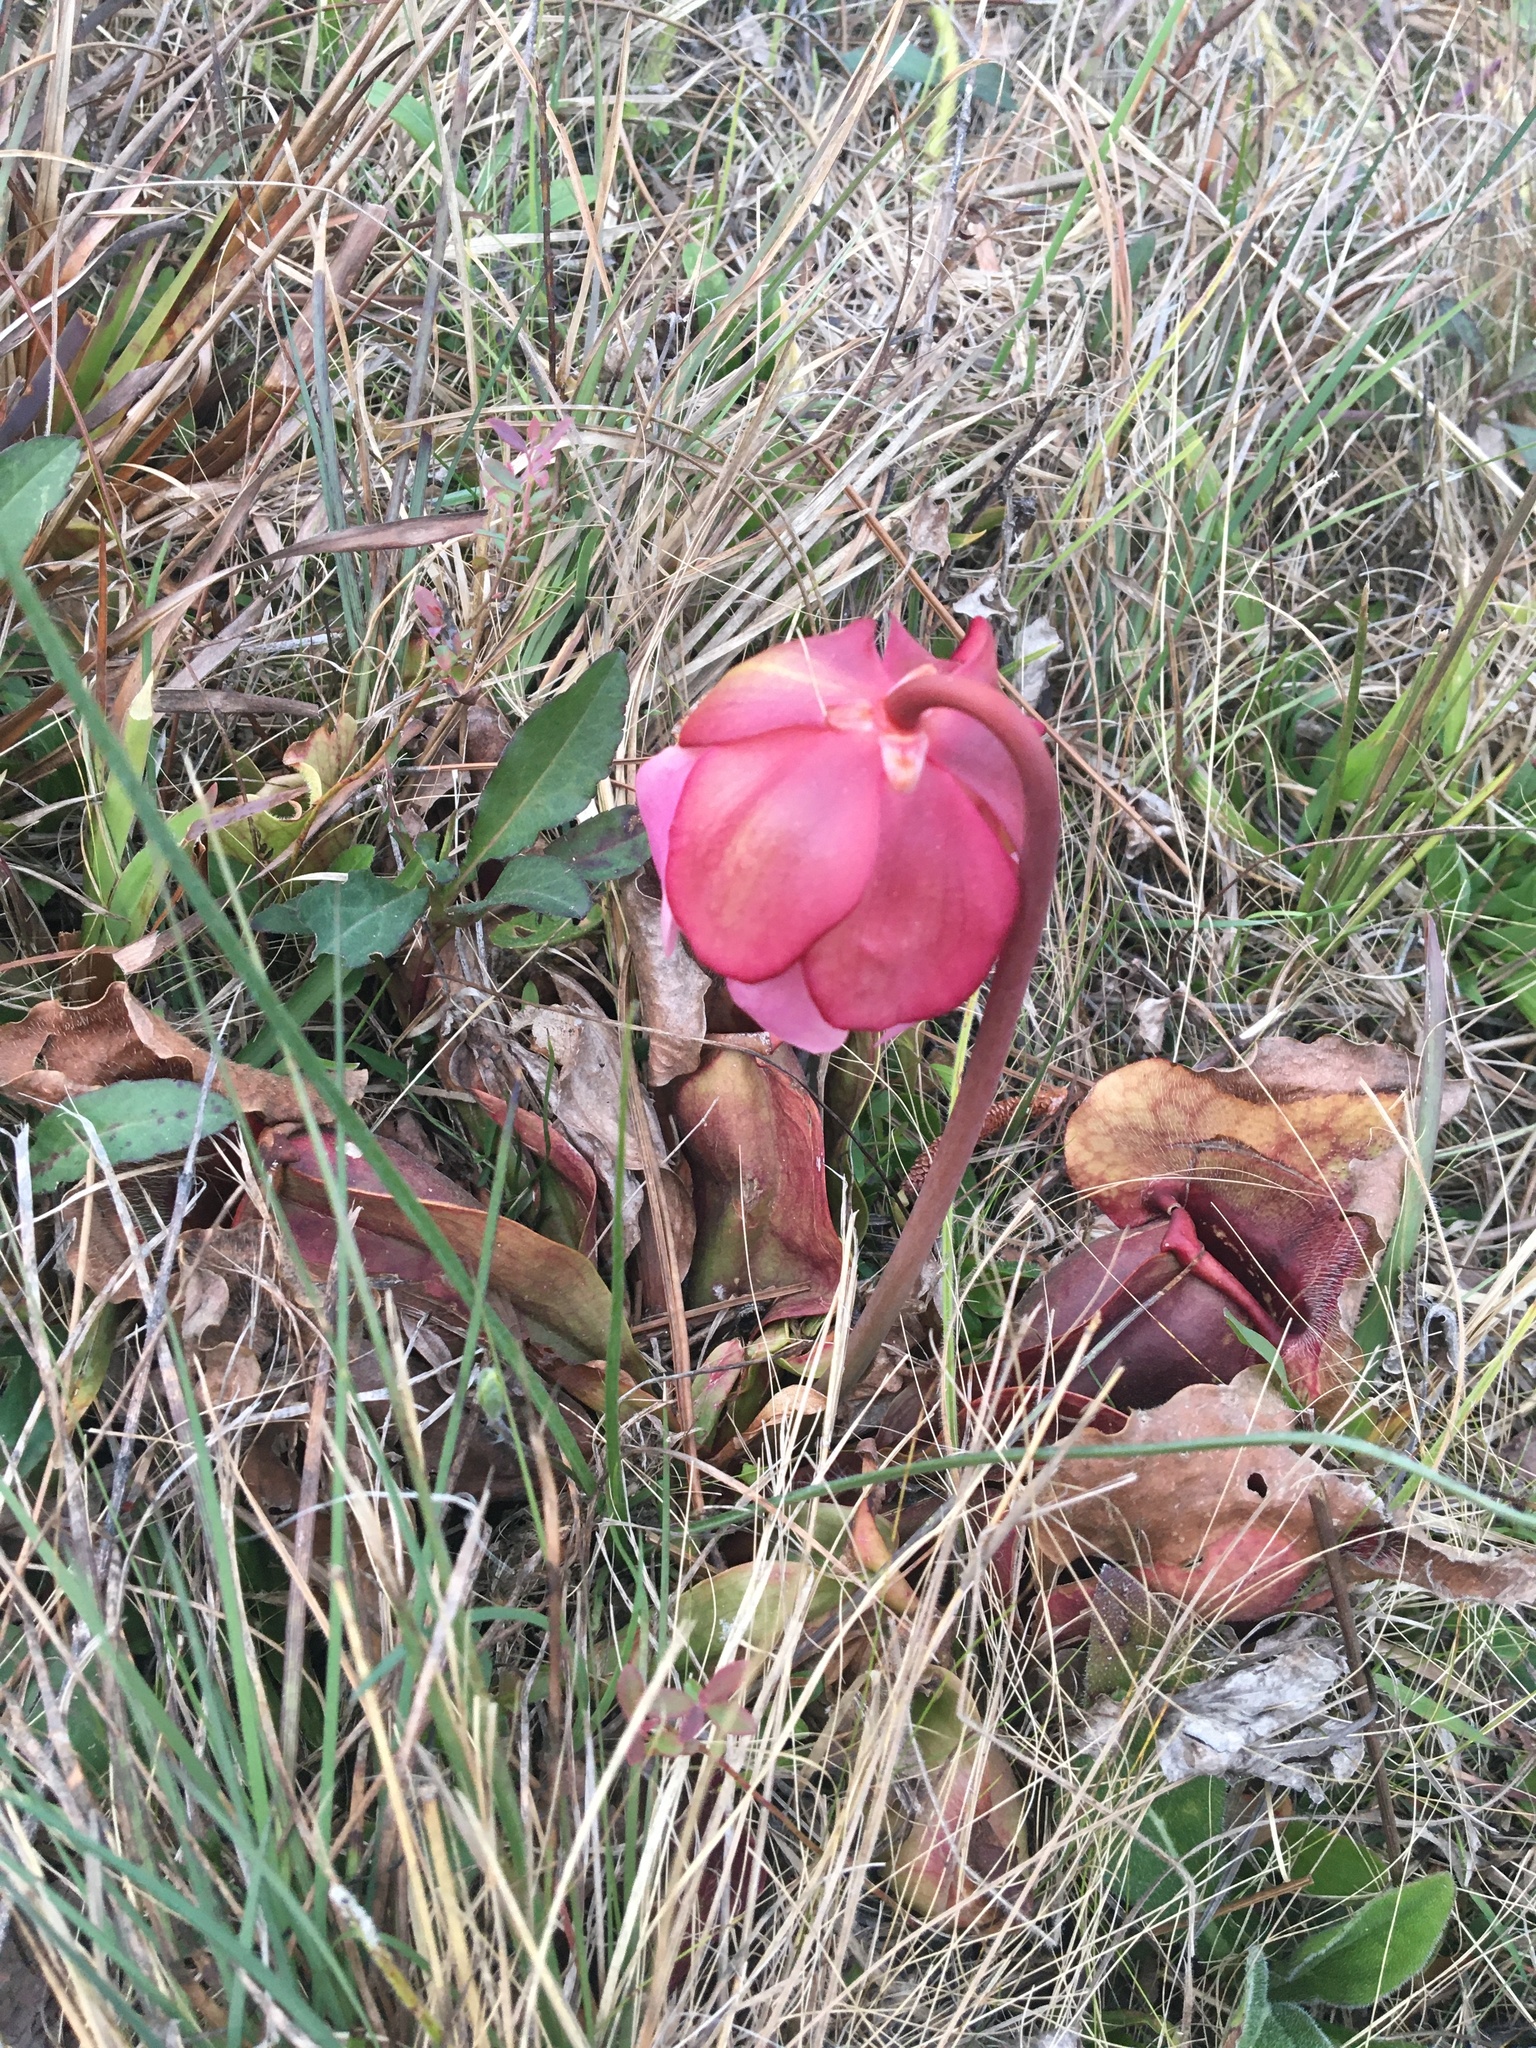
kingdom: Plantae
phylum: Tracheophyta
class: Magnoliopsida
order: Ericales
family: Sarraceniaceae
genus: Sarracenia
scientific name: Sarracenia rosea
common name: Pink pitcherplant
